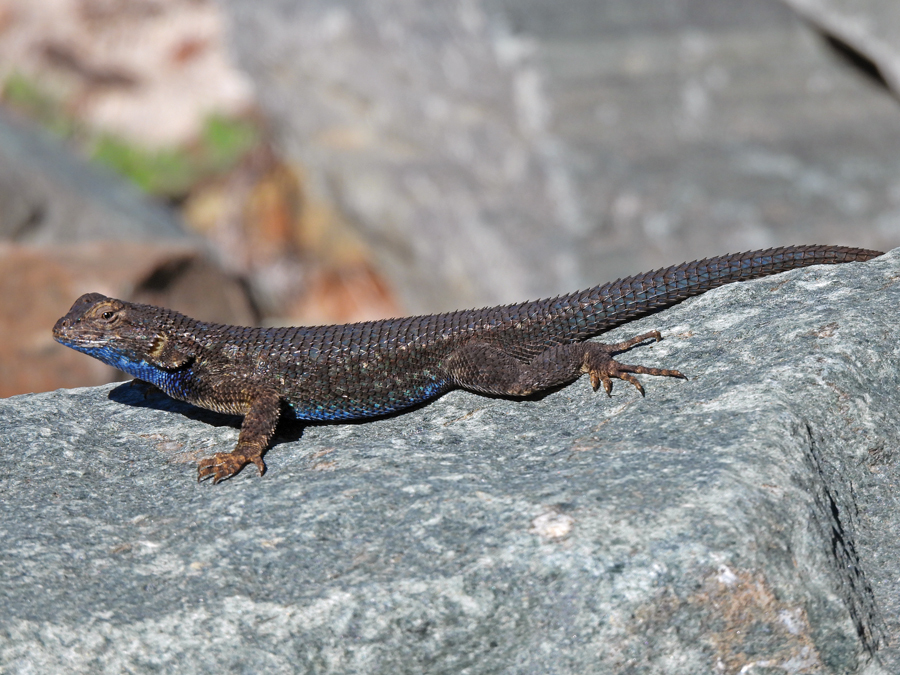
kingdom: Animalia
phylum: Chordata
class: Squamata
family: Phrynosomatidae
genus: Sceloporus
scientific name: Sceloporus occidentalis
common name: Western fence lizard
